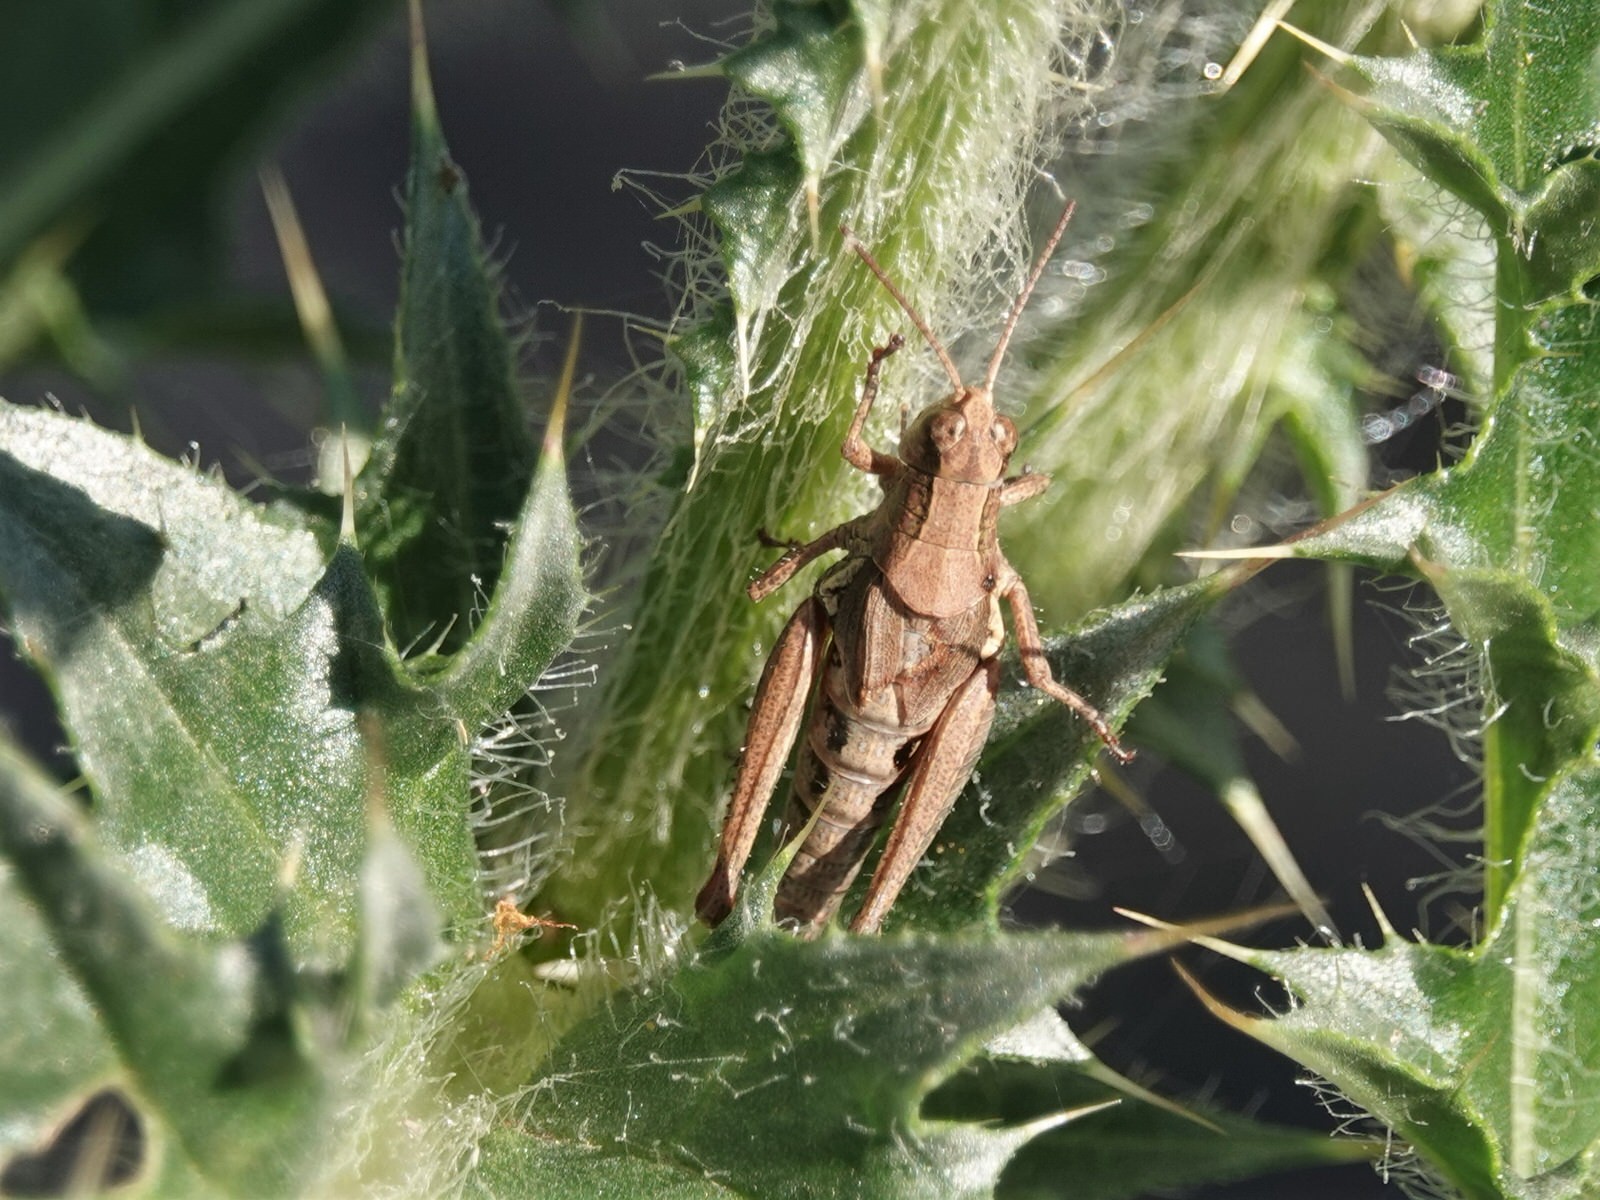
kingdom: Animalia
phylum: Arthropoda
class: Insecta
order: Orthoptera
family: Acrididae
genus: Phaulacridium
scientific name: Phaulacridium marginale
